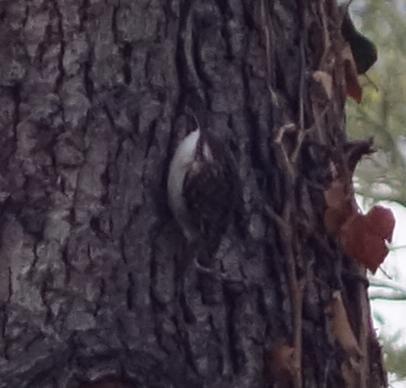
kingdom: Animalia
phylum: Chordata
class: Aves
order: Passeriformes
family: Certhiidae
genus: Certhia
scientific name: Certhia
